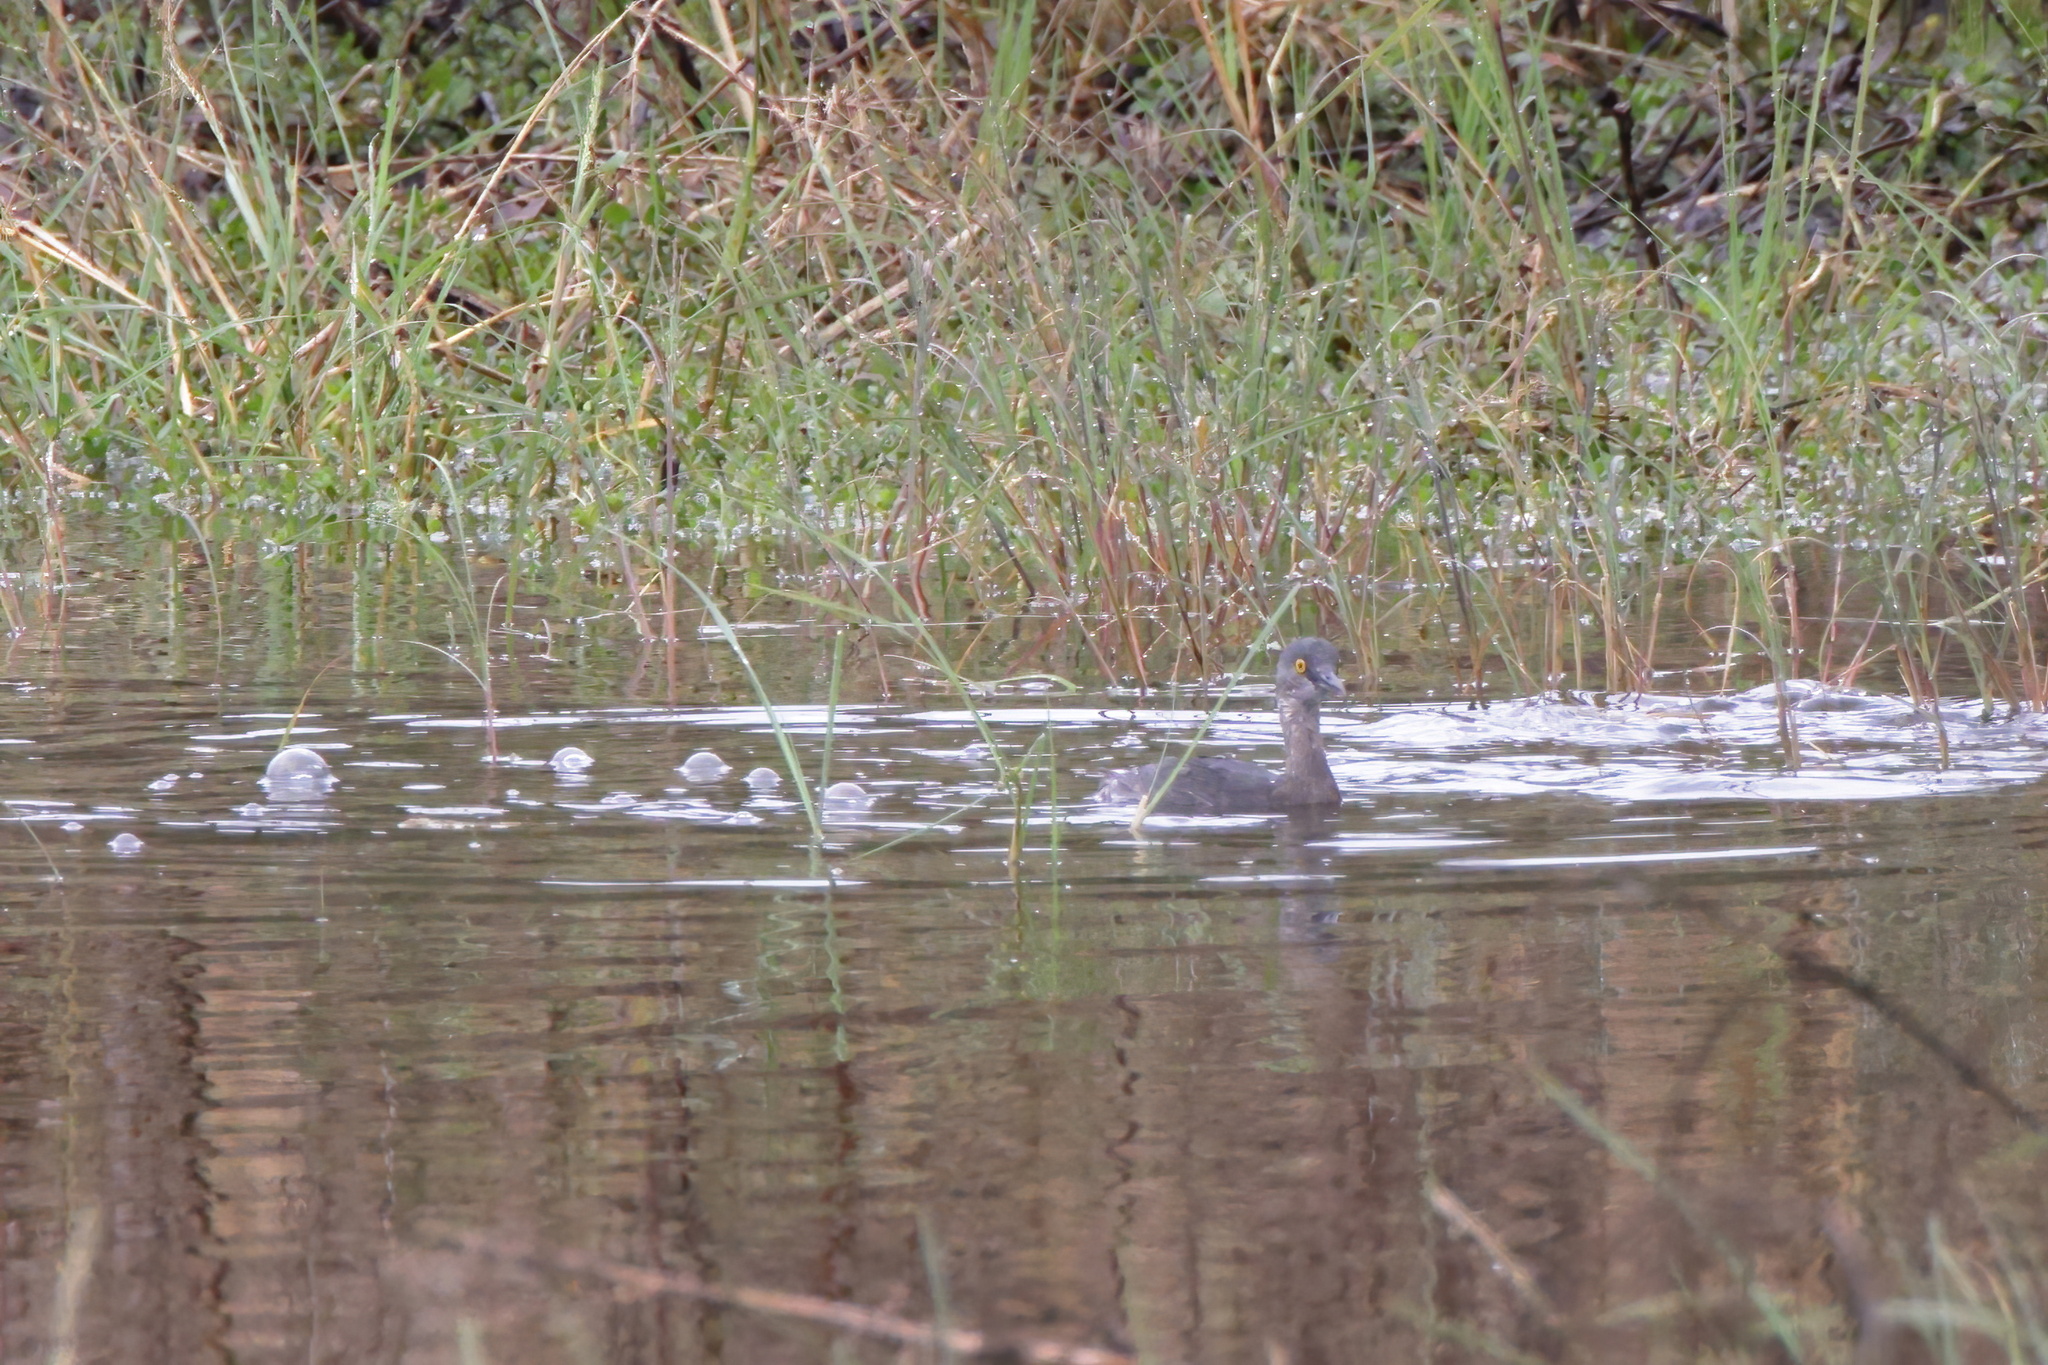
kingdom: Animalia
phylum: Chordata
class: Aves
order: Podicipediformes
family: Podicipedidae
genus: Tachybaptus
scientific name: Tachybaptus dominicus
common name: Least grebe
